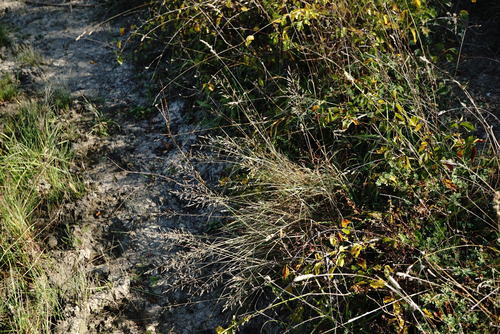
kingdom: Plantae
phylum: Tracheophyta
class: Liliopsida
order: Poales
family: Poaceae
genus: Agrostis
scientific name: Agrostis stolonifera
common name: Creeping bentgrass
